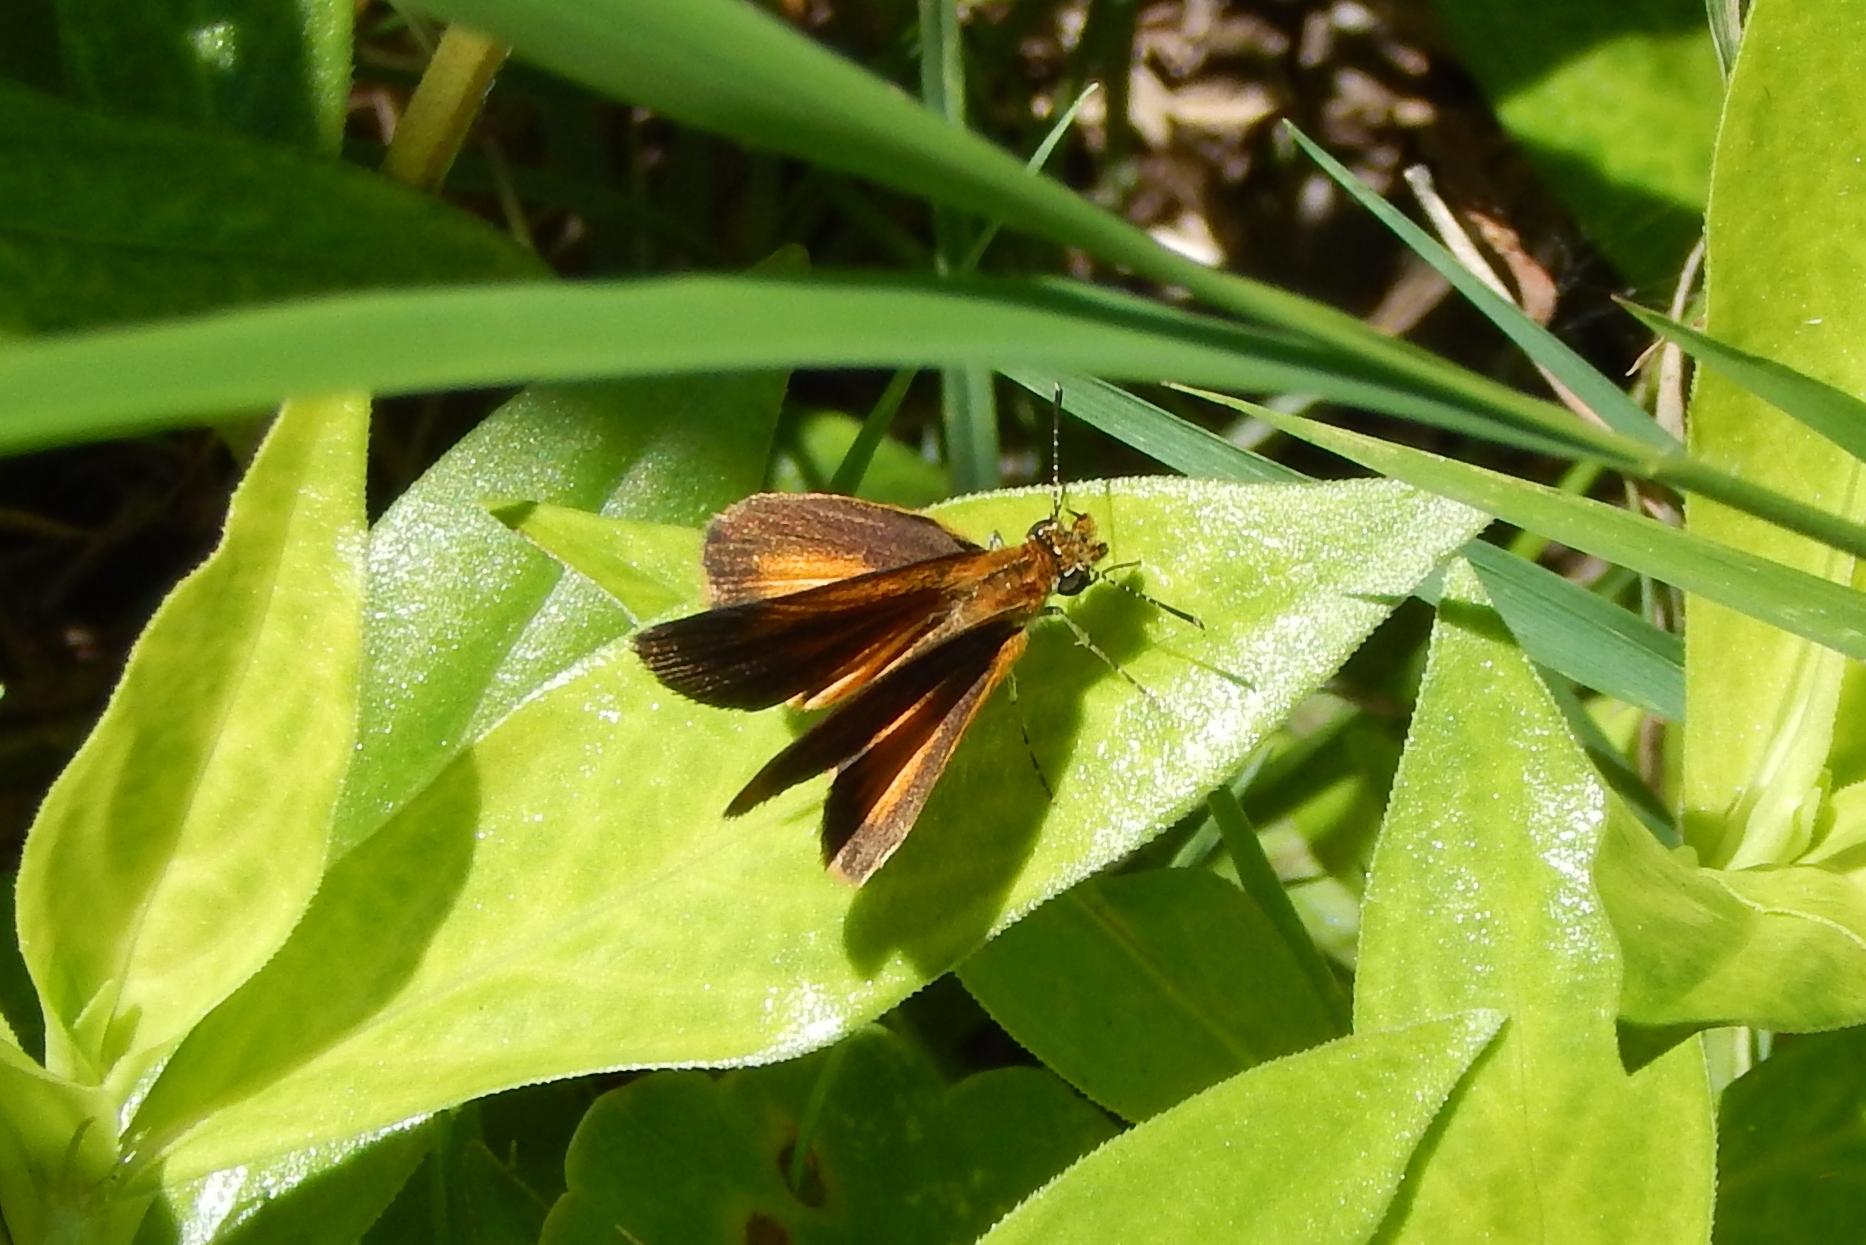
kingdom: Animalia
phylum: Arthropoda
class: Insecta
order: Lepidoptera
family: Hesperiidae
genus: Ancyloxypha
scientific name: Ancyloxypha numitor
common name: Least skipper
